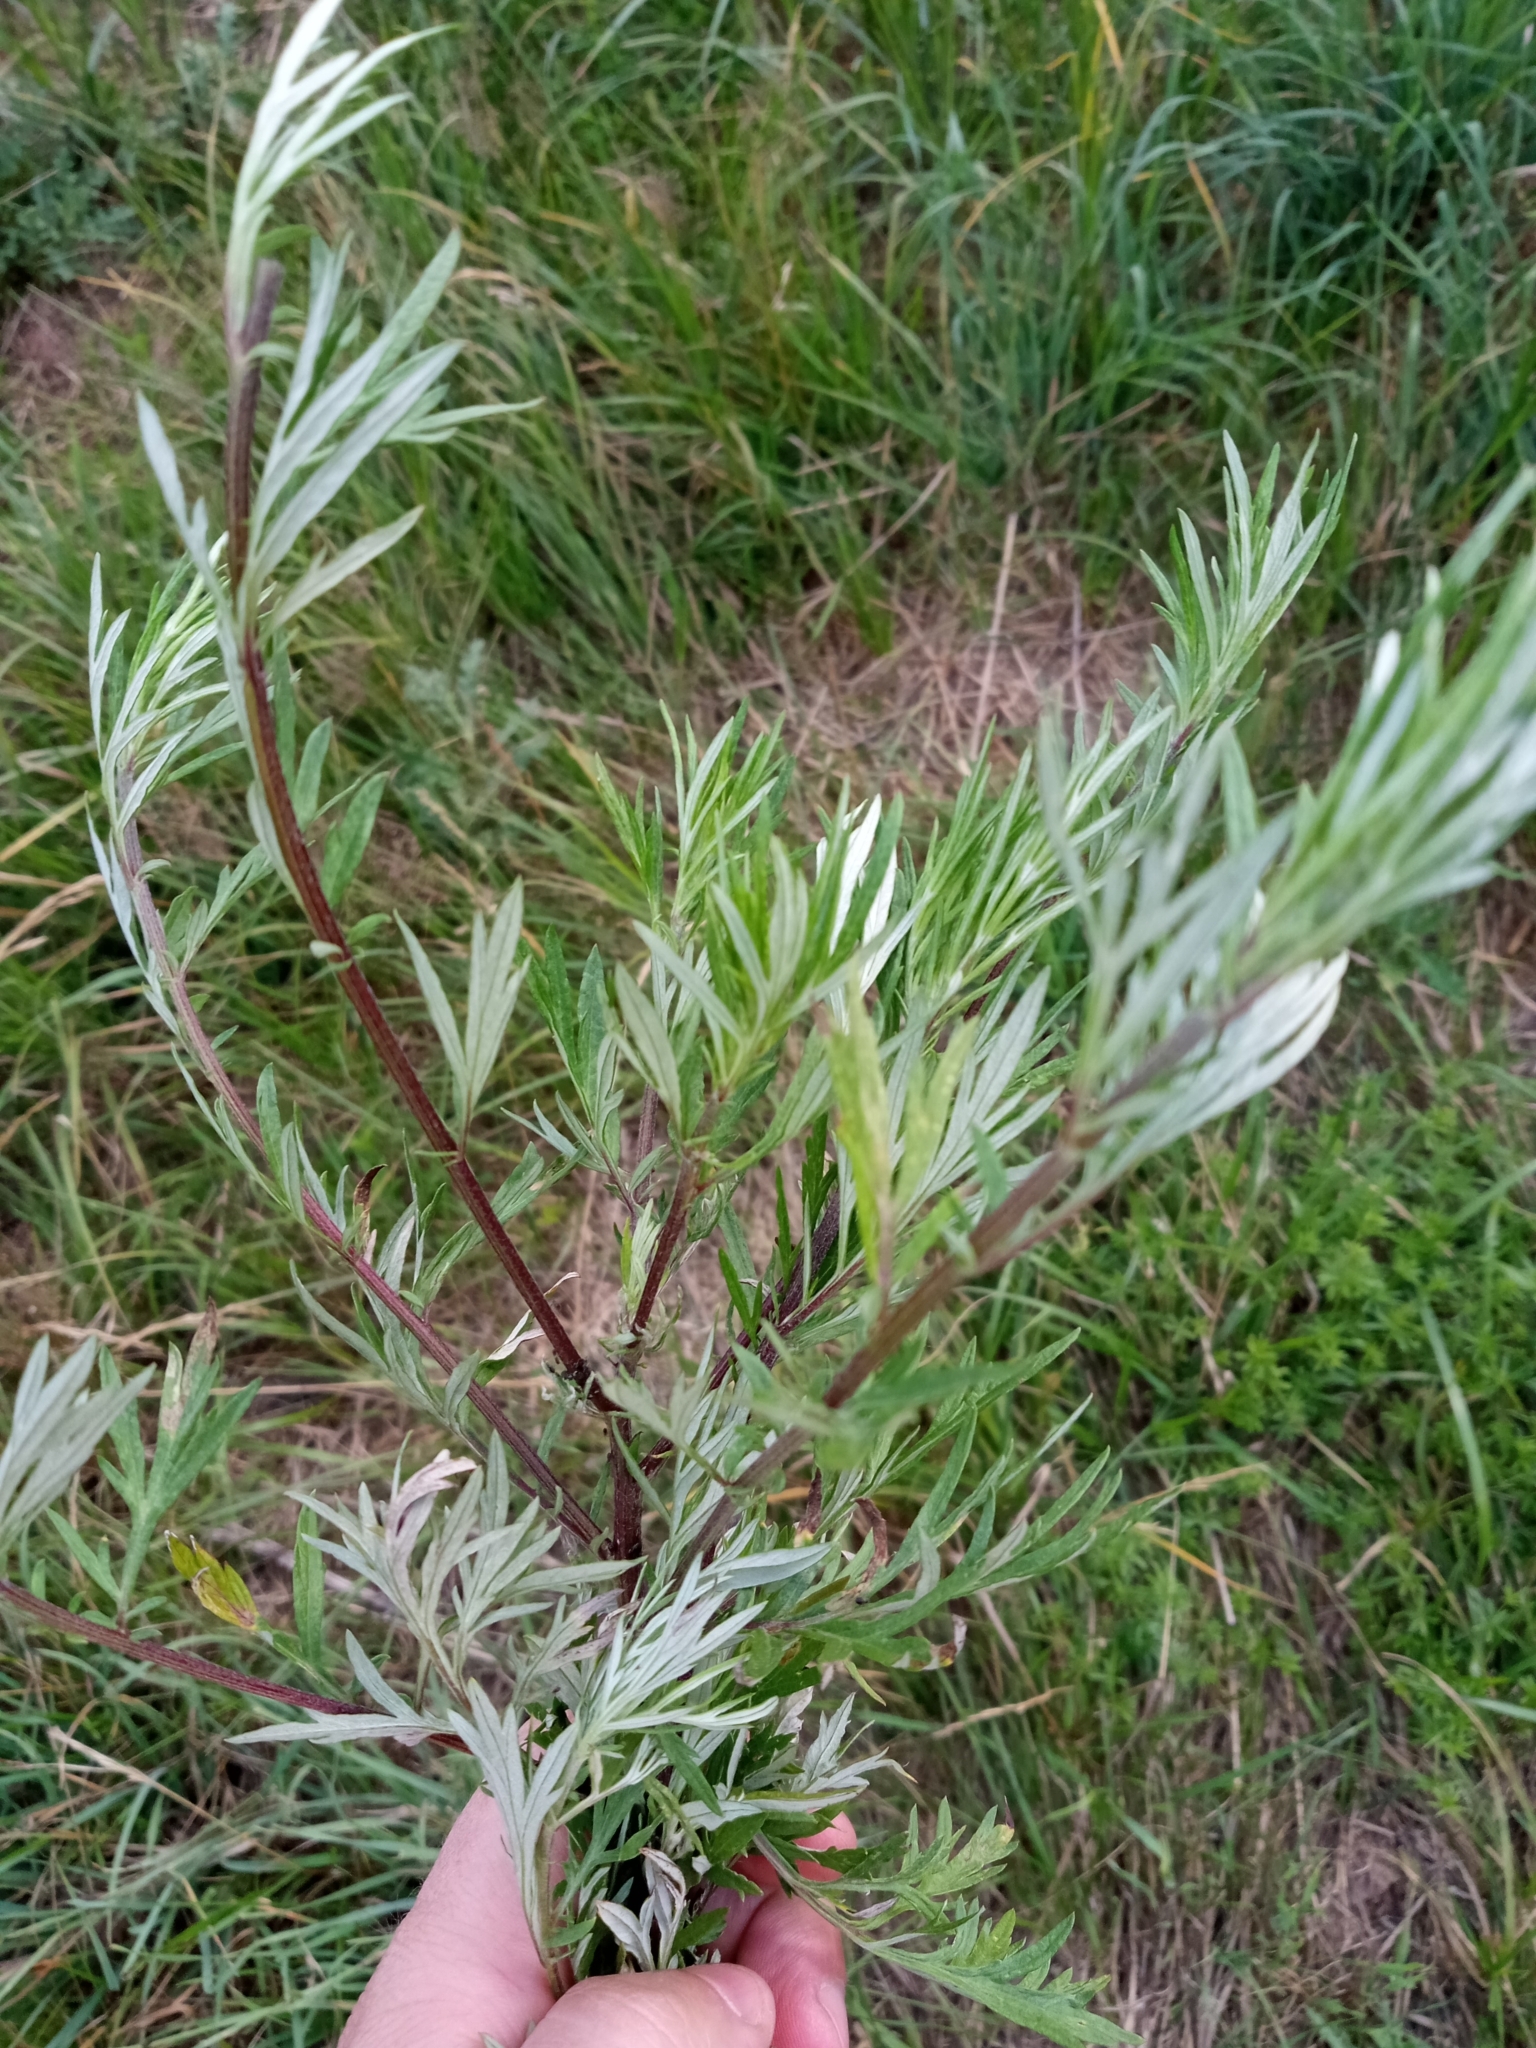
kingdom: Plantae
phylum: Tracheophyta
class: Magnoliopsida
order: Asterales
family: Asteraceae
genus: Artemisia
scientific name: Artemisia vulgaris
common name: Mugwort
